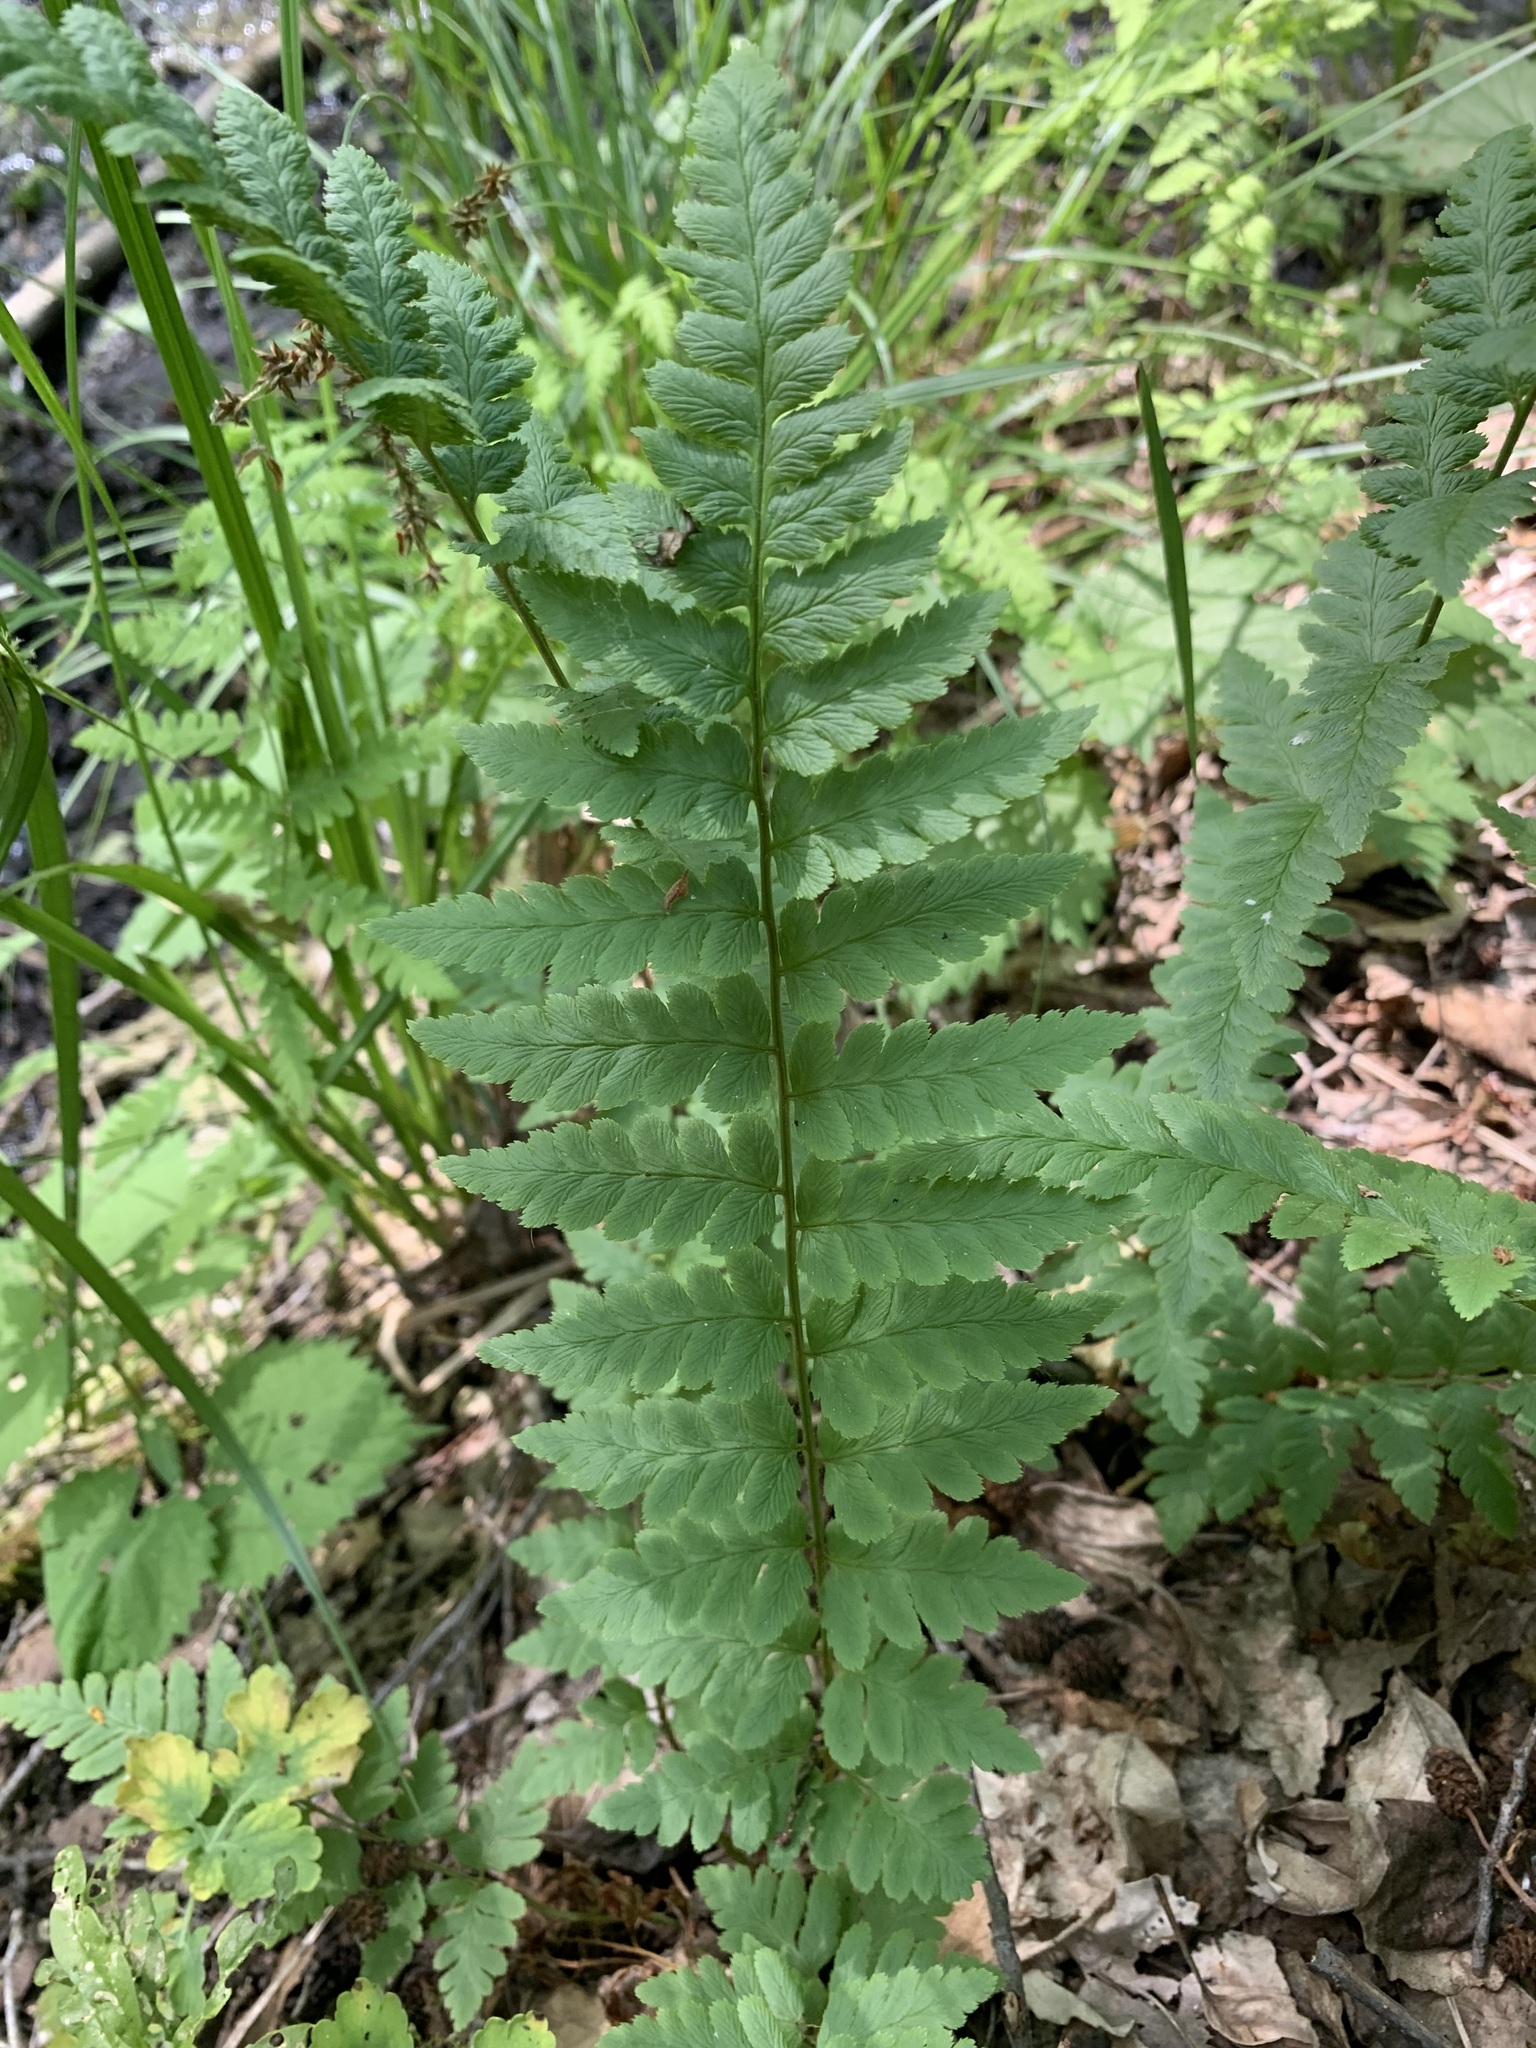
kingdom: Plantae
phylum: Tracheophyta
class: Polypodiopsida
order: Polypodiales
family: Dryopteridaceae
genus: Dryopteris
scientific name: Dryopteris cristata
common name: Crested wood fern
